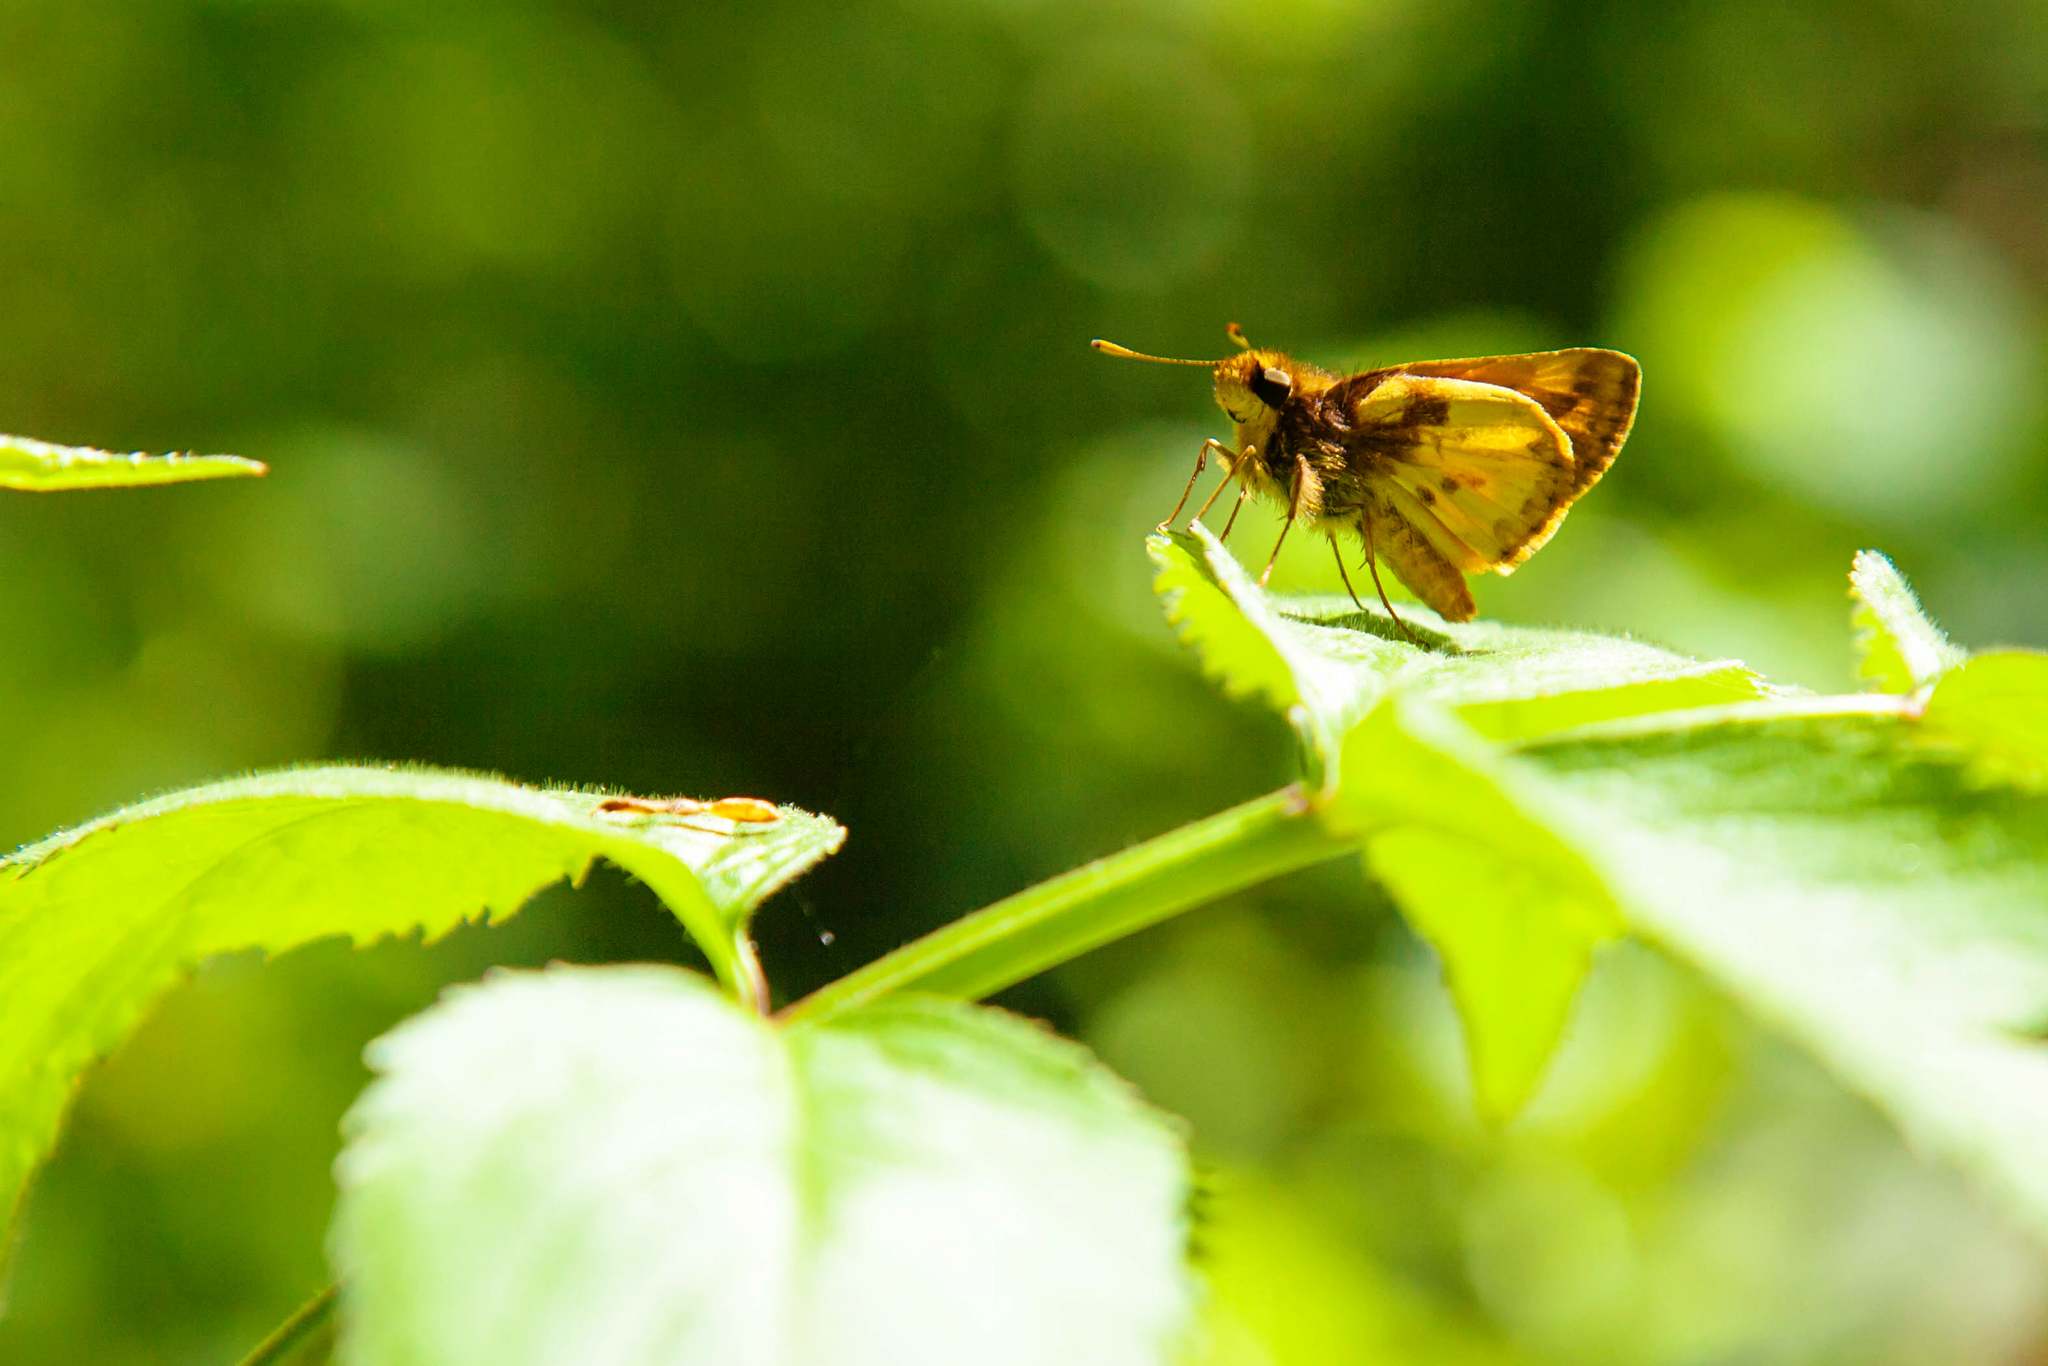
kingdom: Animalia
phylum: Arthropoda
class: Insecta
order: Lepidoptera
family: Hesperiidae
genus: Lon
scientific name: Lon zabulon
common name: Zabulon skipper
